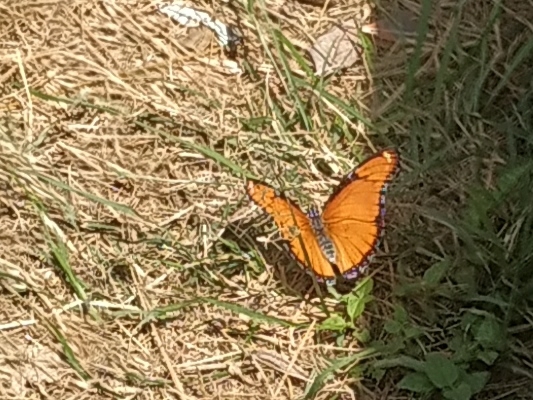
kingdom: Animalia
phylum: Arthropoda
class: Insecta
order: Lepidoptera
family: Nymphalidae
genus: Hypolimnas
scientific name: Hypolimnas misippus
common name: False plain tiger
